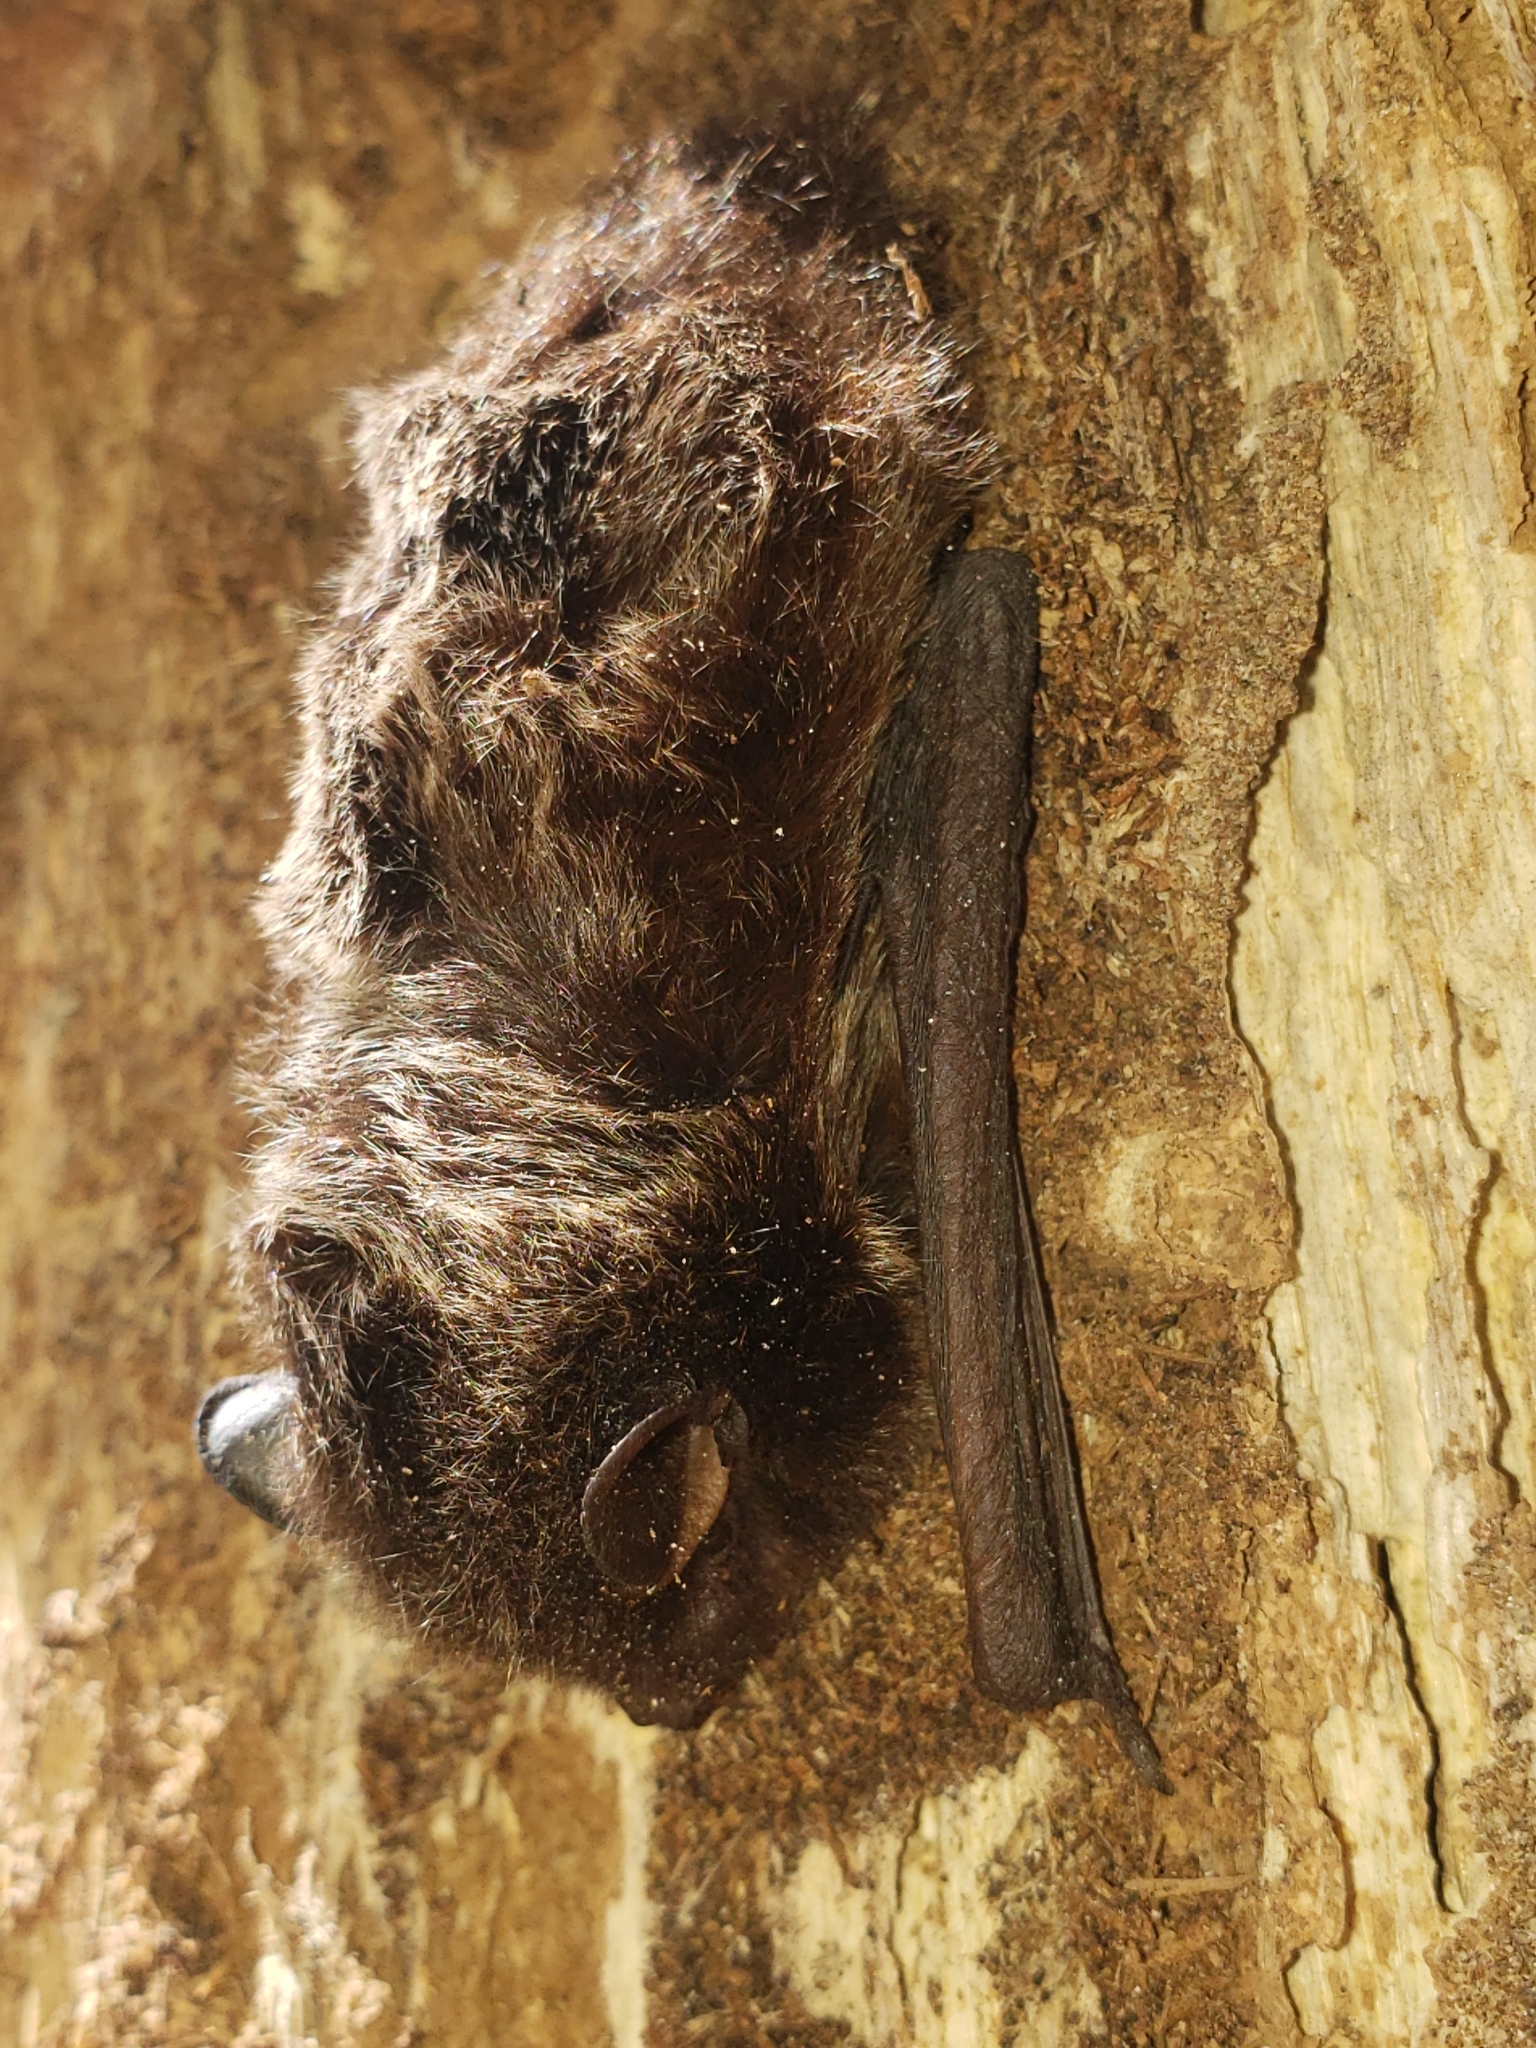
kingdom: Animalia
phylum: Chordata
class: Mammalia
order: Chiroptera
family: Vespertilionidae
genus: Lasionycteris
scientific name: Lasionycteris noctivagans
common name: Silver-haired bat
